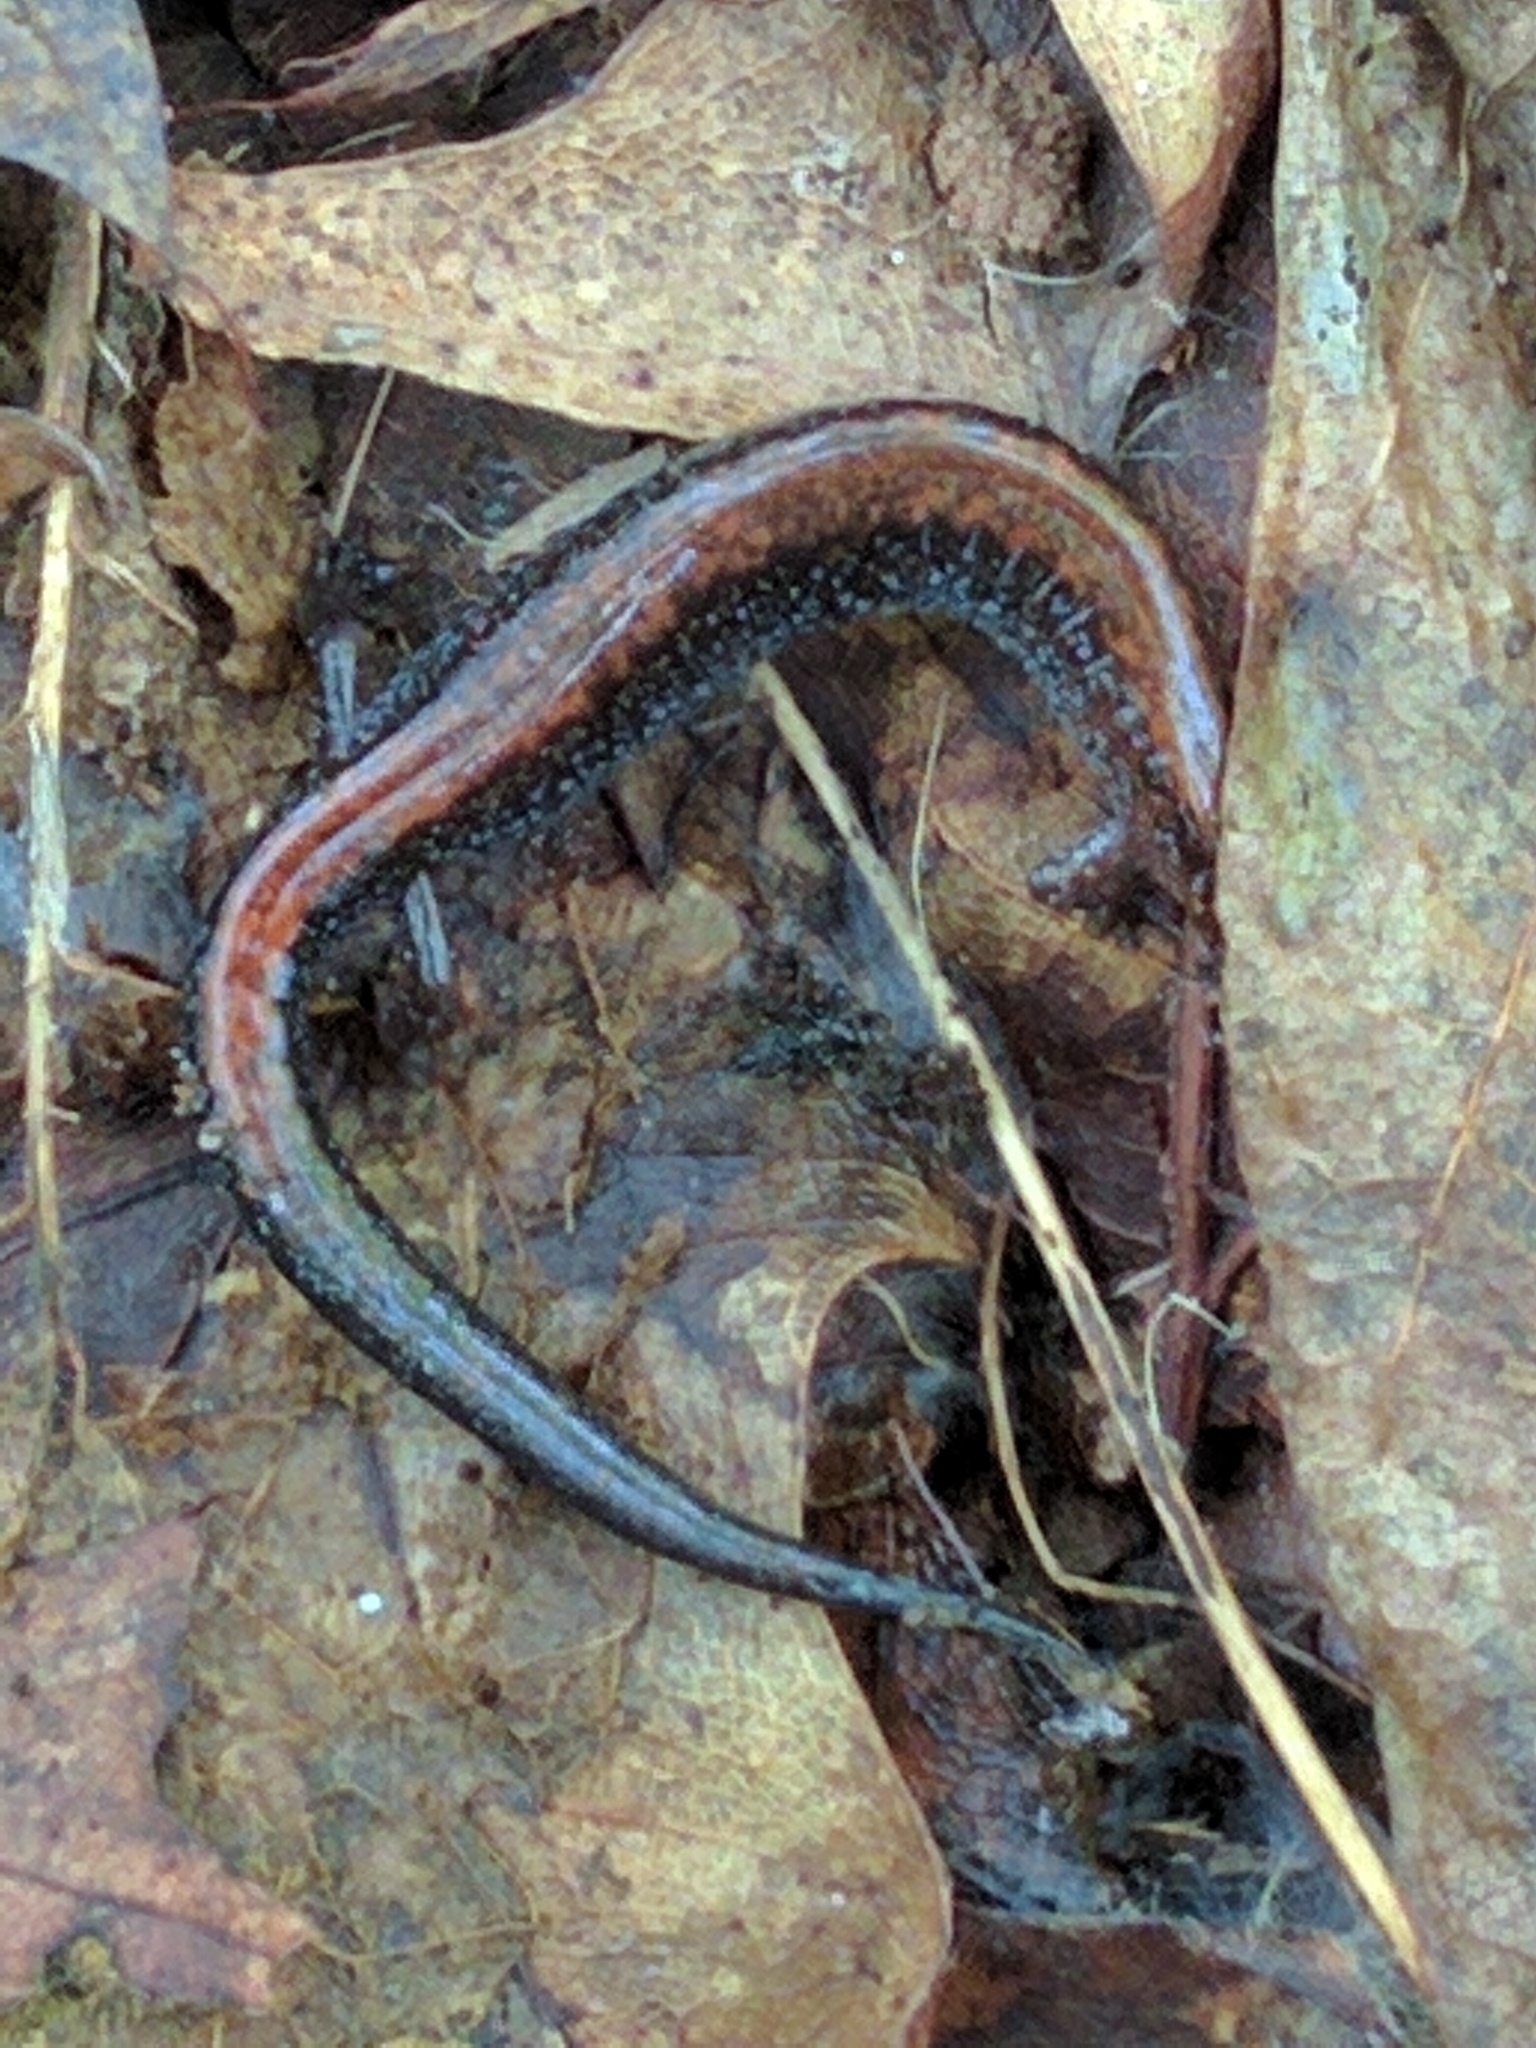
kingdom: Animalia
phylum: Chordata
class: Amphibia
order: Caudata
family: Plethodontidae
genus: Plethodon
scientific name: Plethodon cinereus
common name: Redback salamander
